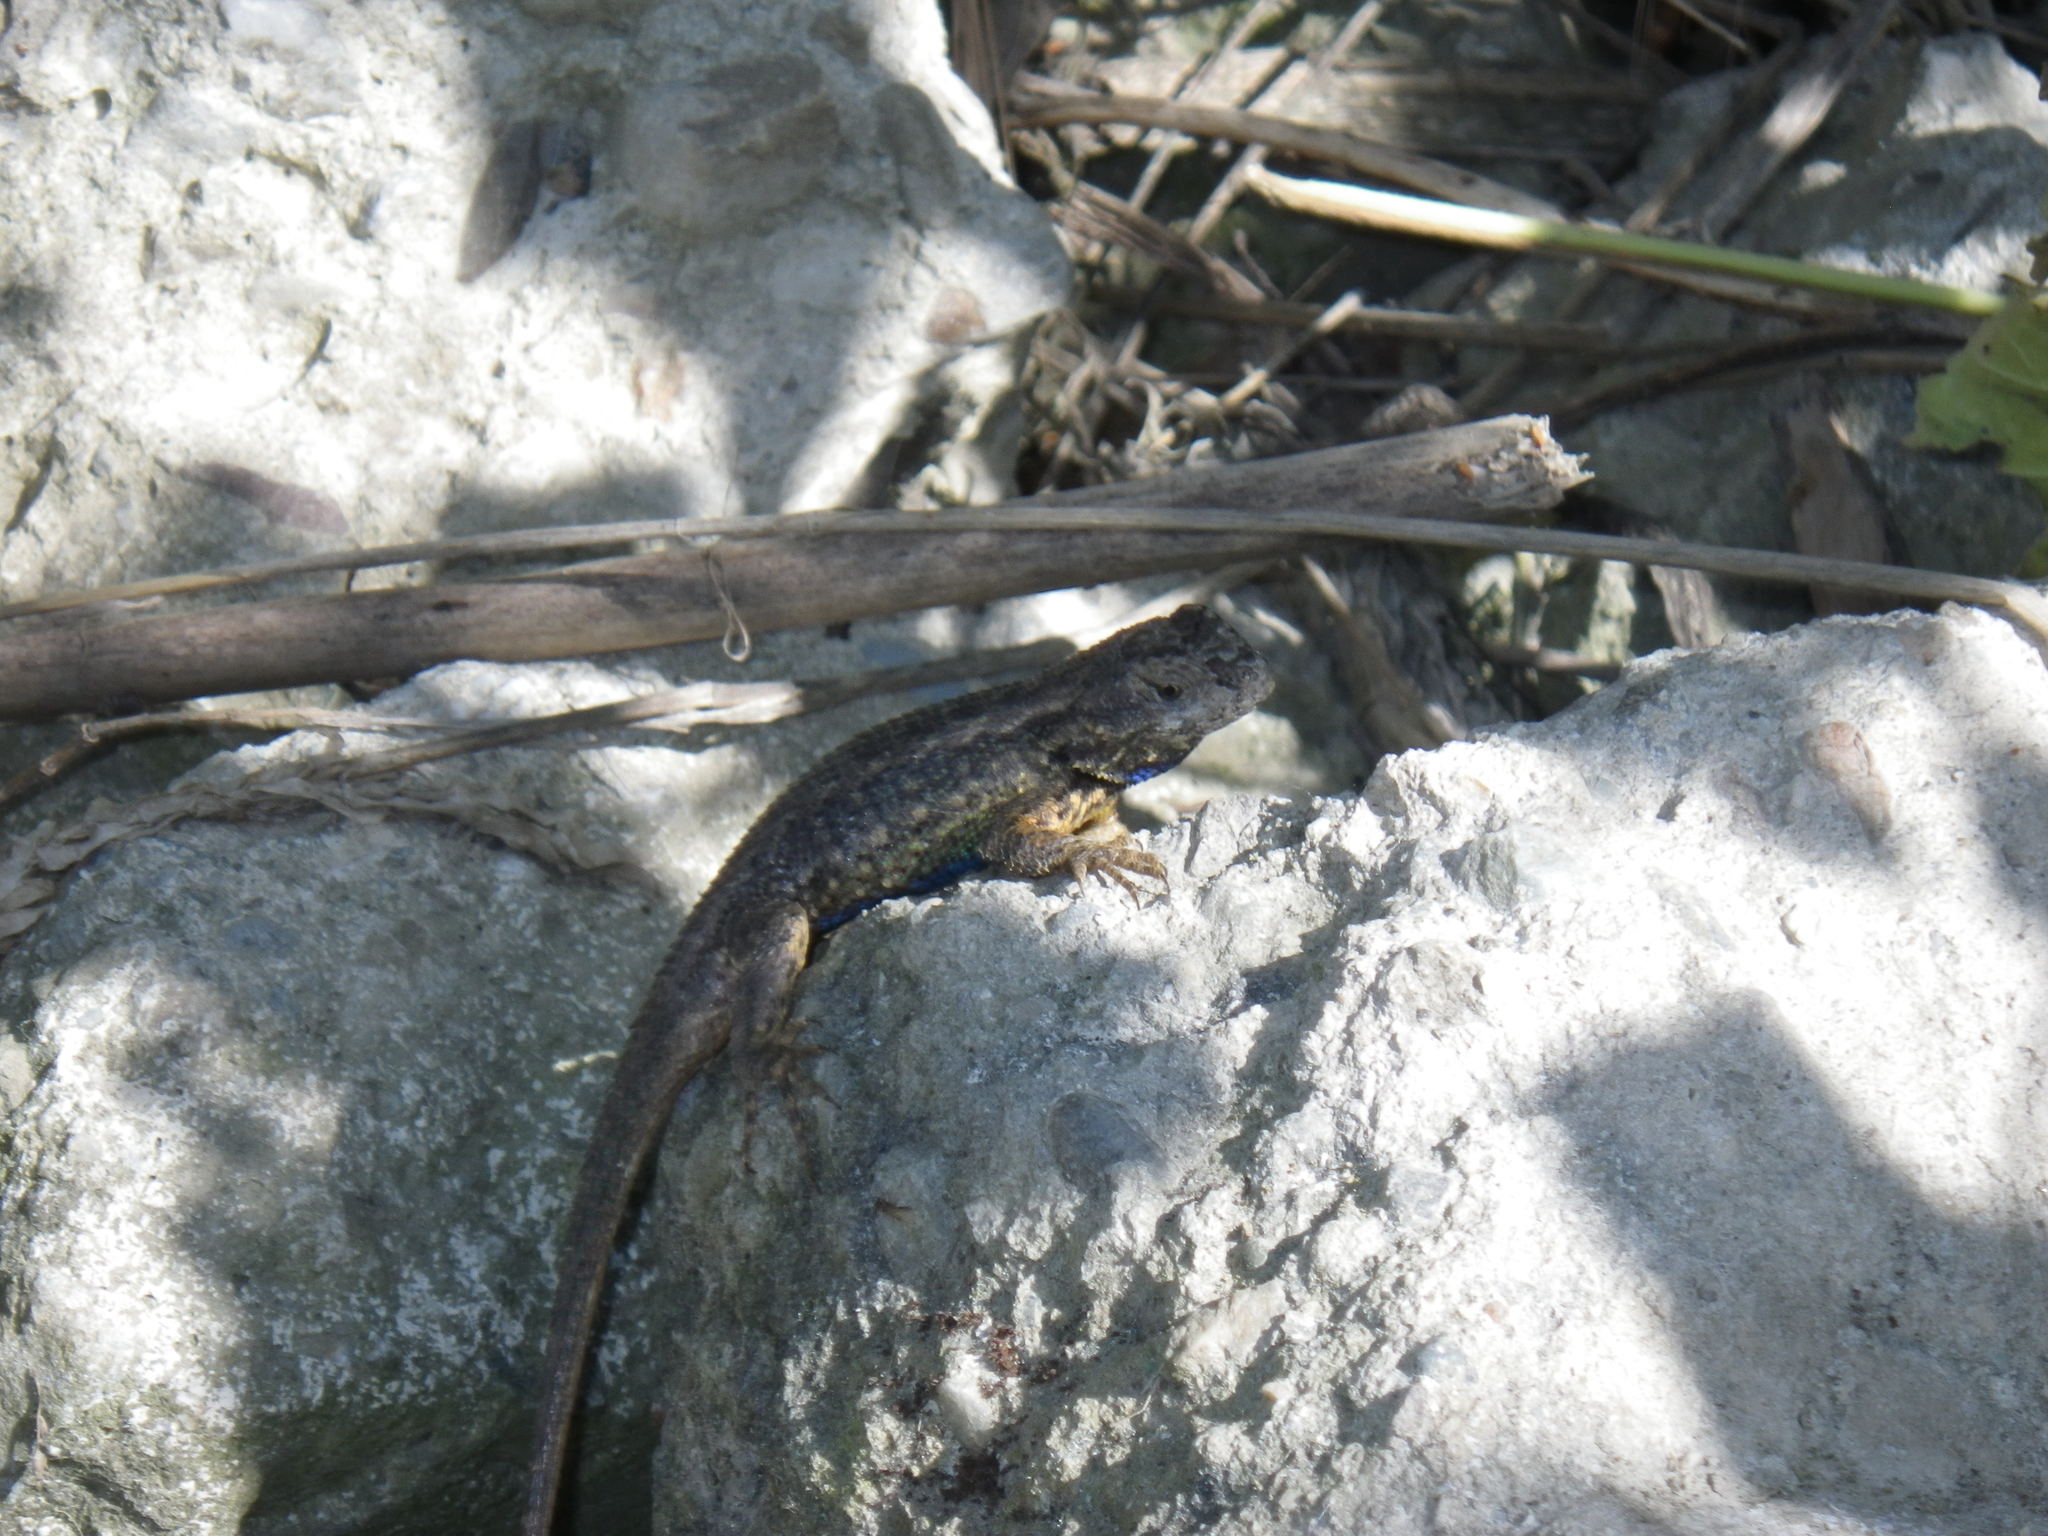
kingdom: Animalia
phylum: Chordata
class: Squamata
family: Phrynosomatidae
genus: Sceloporus
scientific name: Sceloporus occidentalis
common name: Western fence lizard
